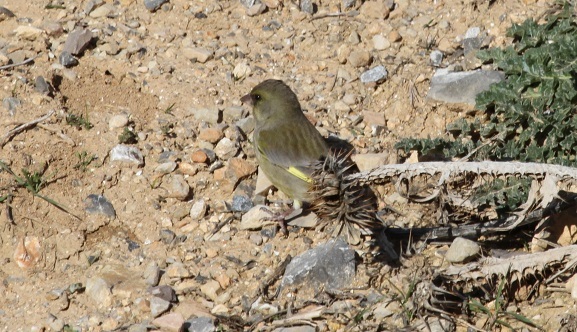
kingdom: Plantae
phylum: Tracheophyta
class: Liliopsida
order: Poales
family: Poaceae
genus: Chloris
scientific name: Chloris chloris
